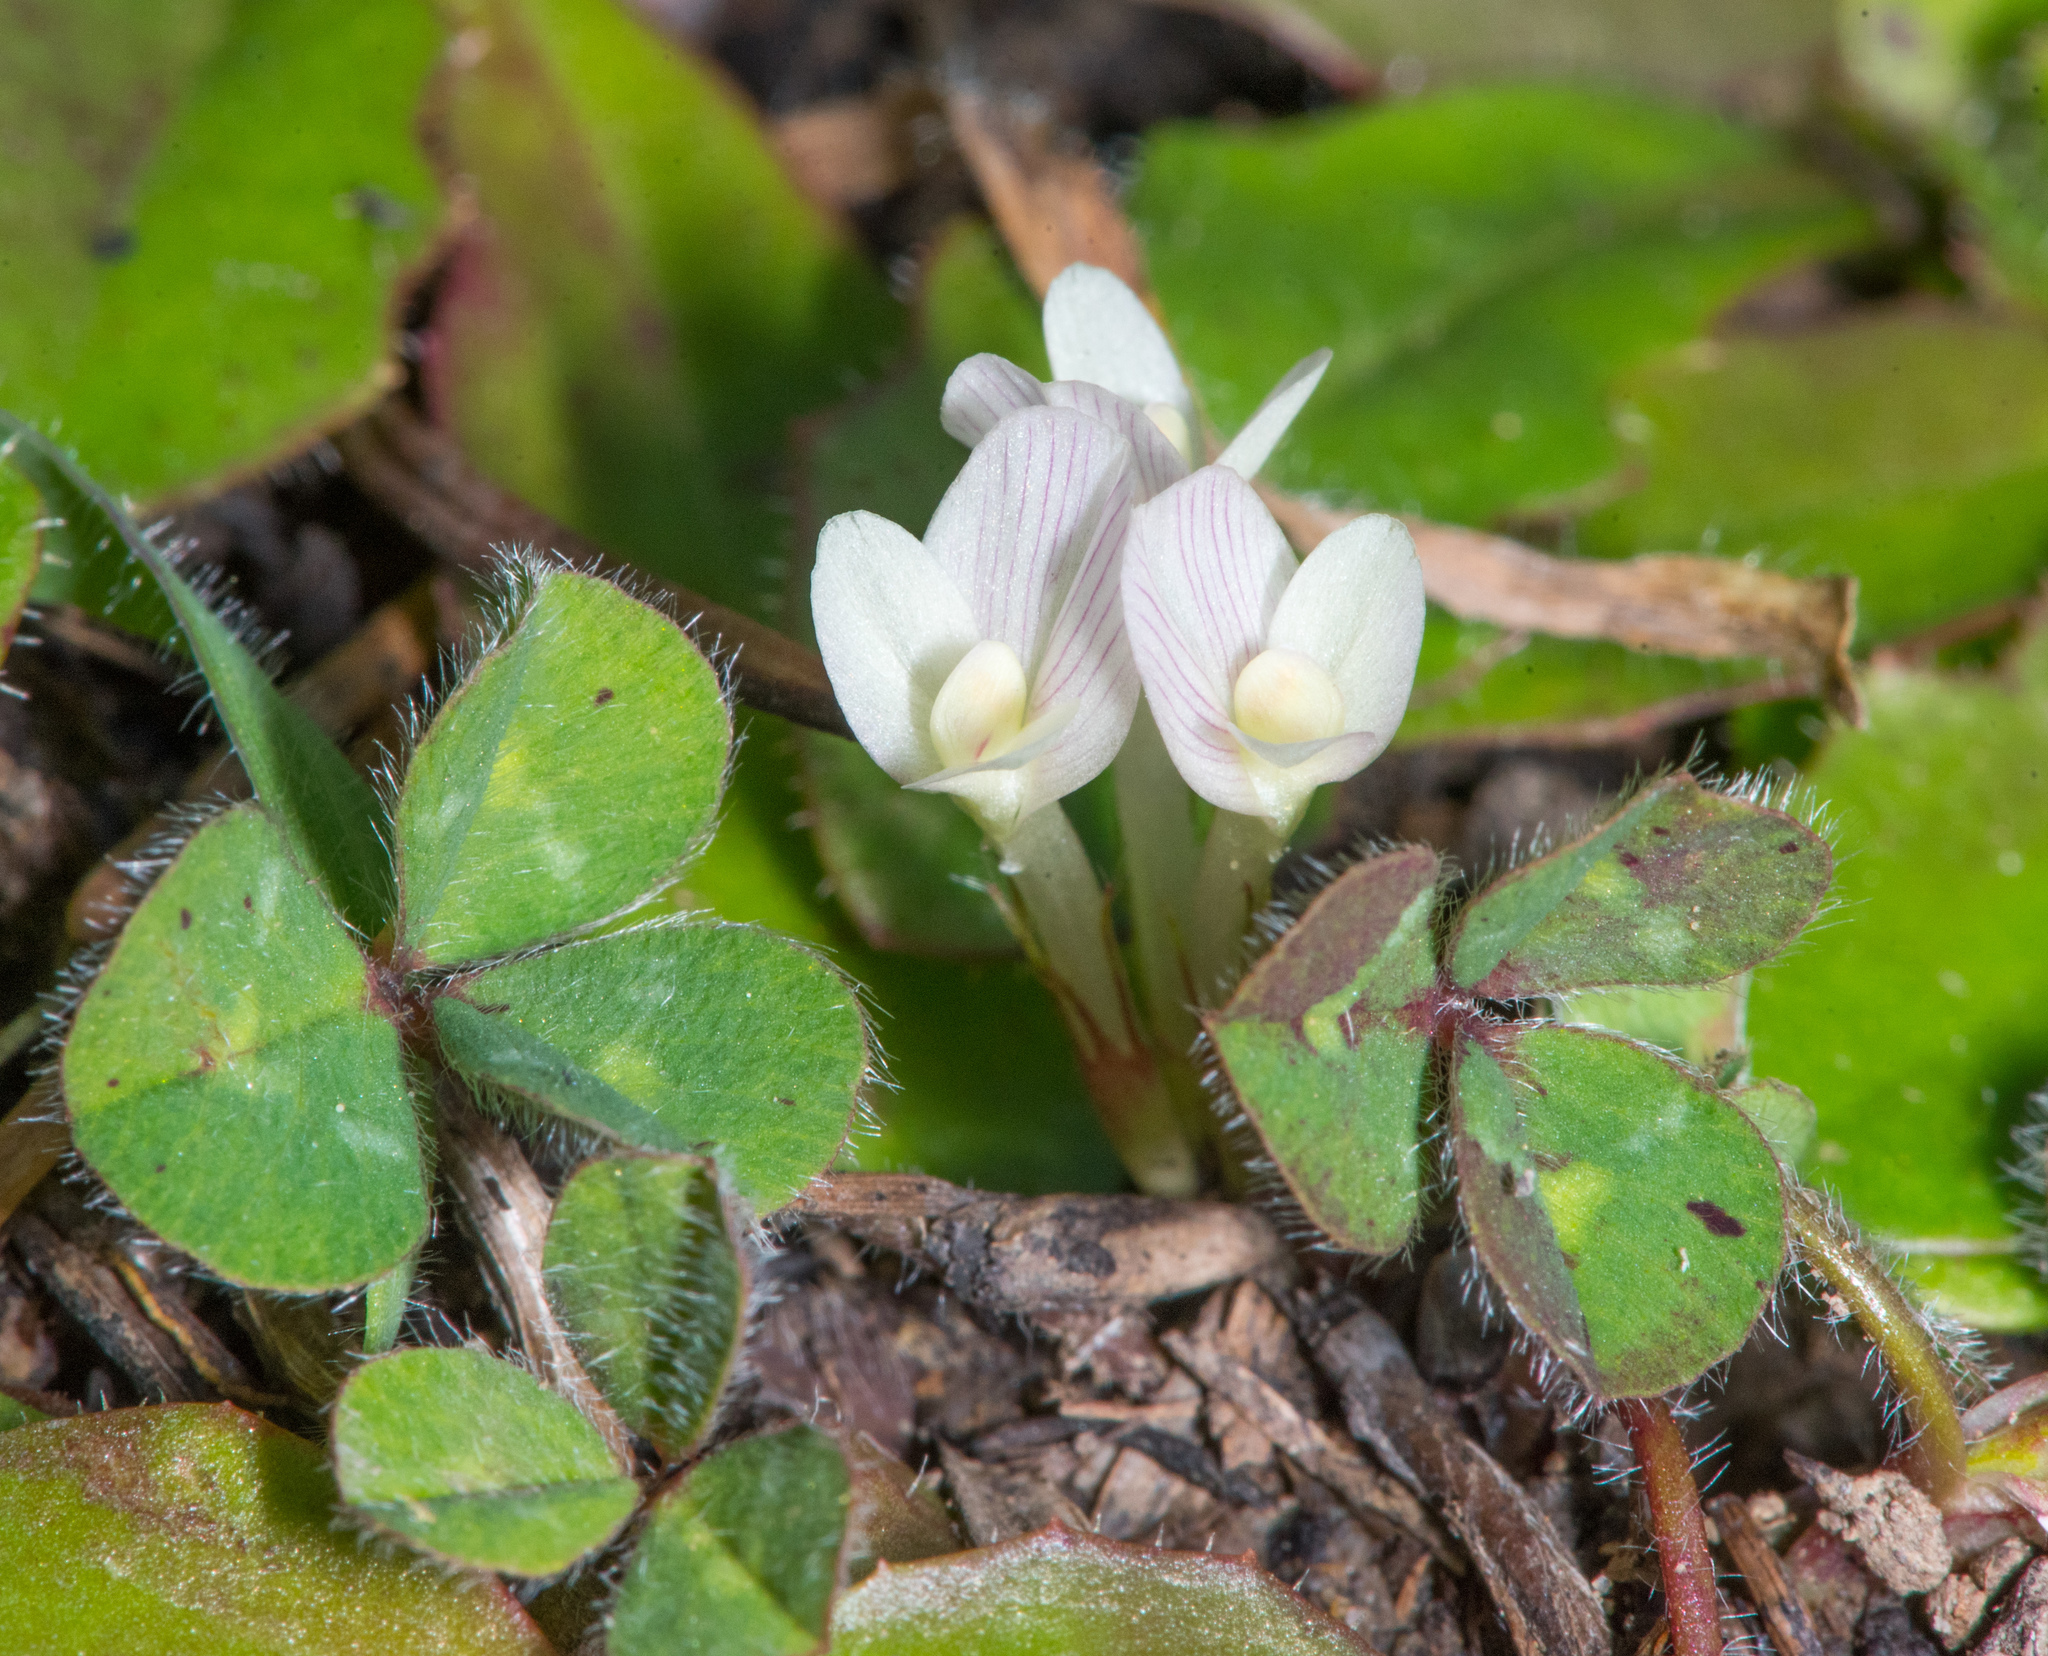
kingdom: Plantae
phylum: Tracheophyta
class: Magnoliopsida
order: Fabales
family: Fabaceae
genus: Trifolium
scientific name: Trifolium subterraneum
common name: Subterranean clover
